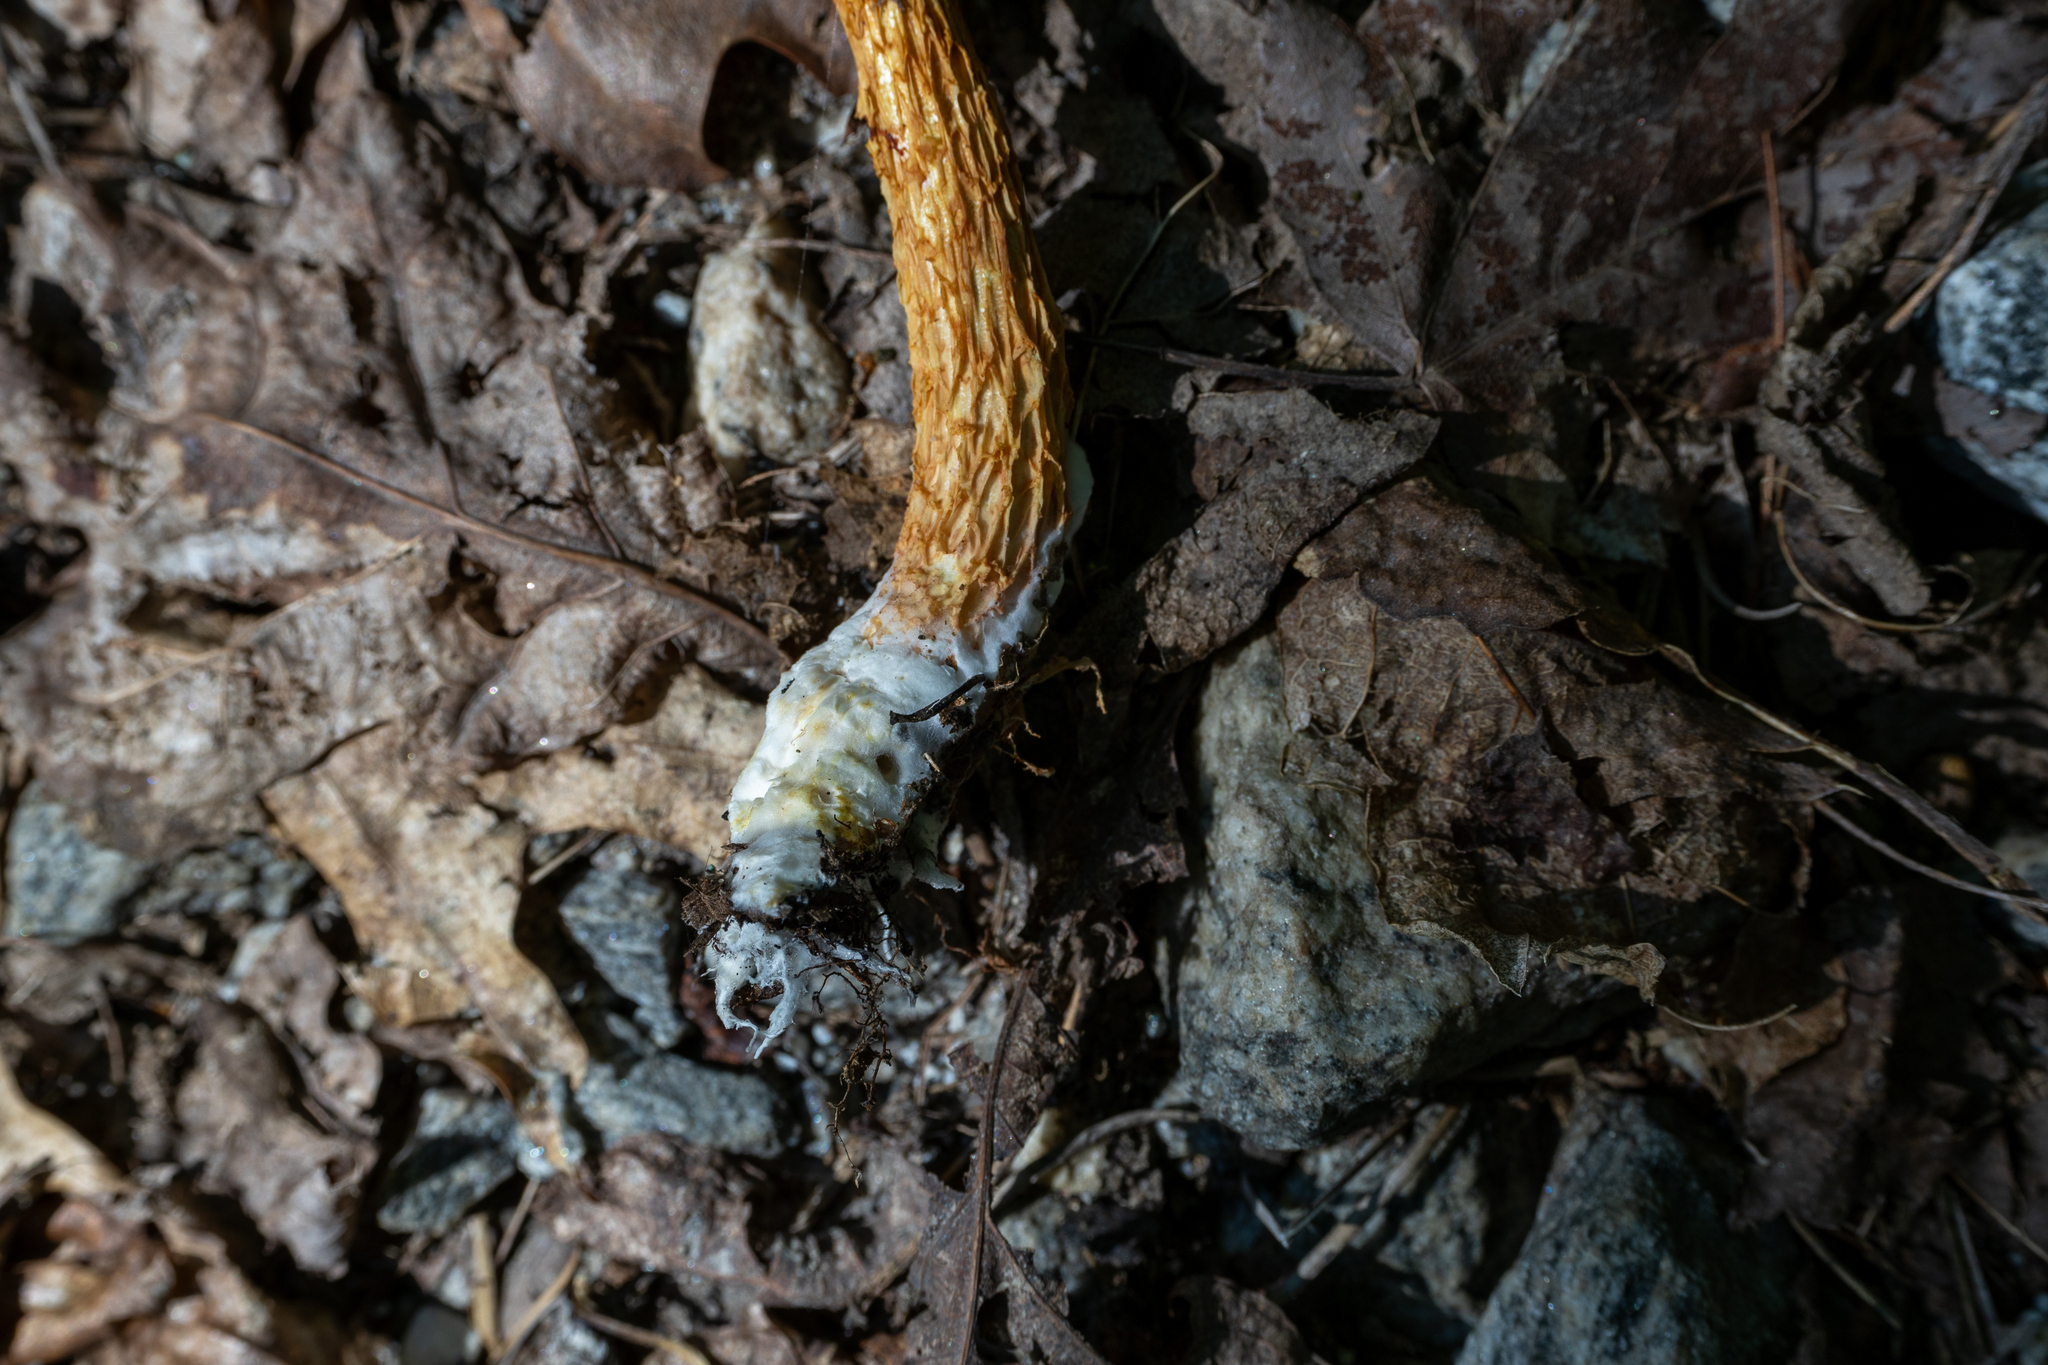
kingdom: Fungi
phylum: Basidiomycota
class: Agaricomycetes
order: Boletales
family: Boletaceae
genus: Aureoboletus
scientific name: Aureoboletus betula
